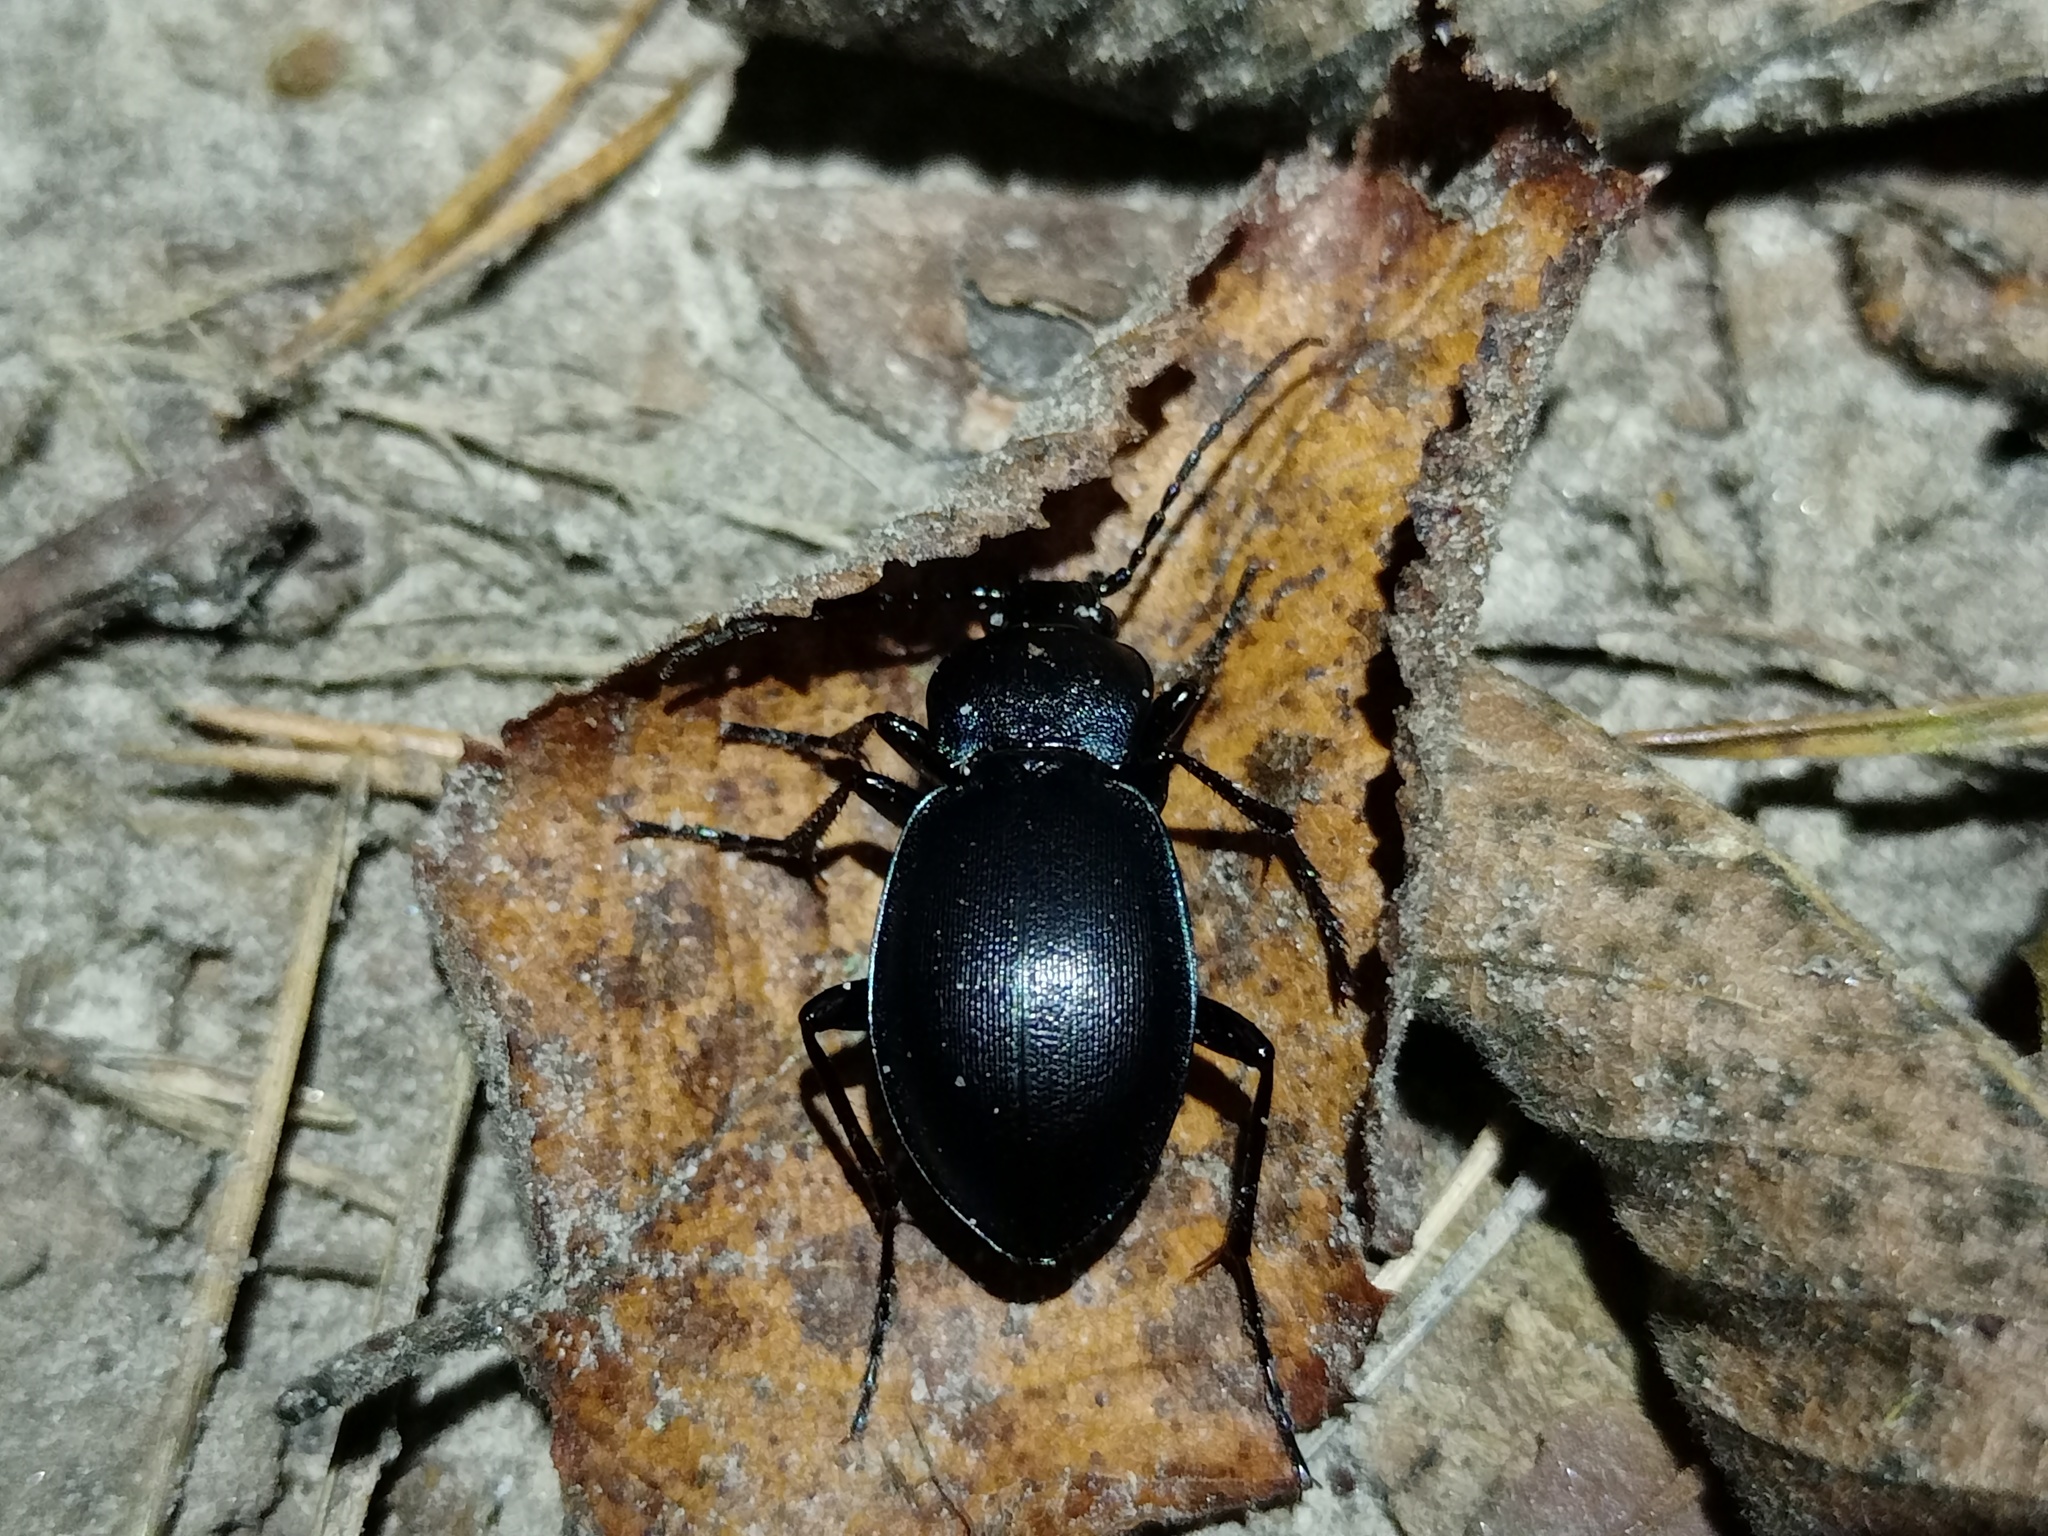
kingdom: Animalia
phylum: Arthropoda
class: Insecta
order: Coleoptera
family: Carabidae
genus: Carabus
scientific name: Carabus
